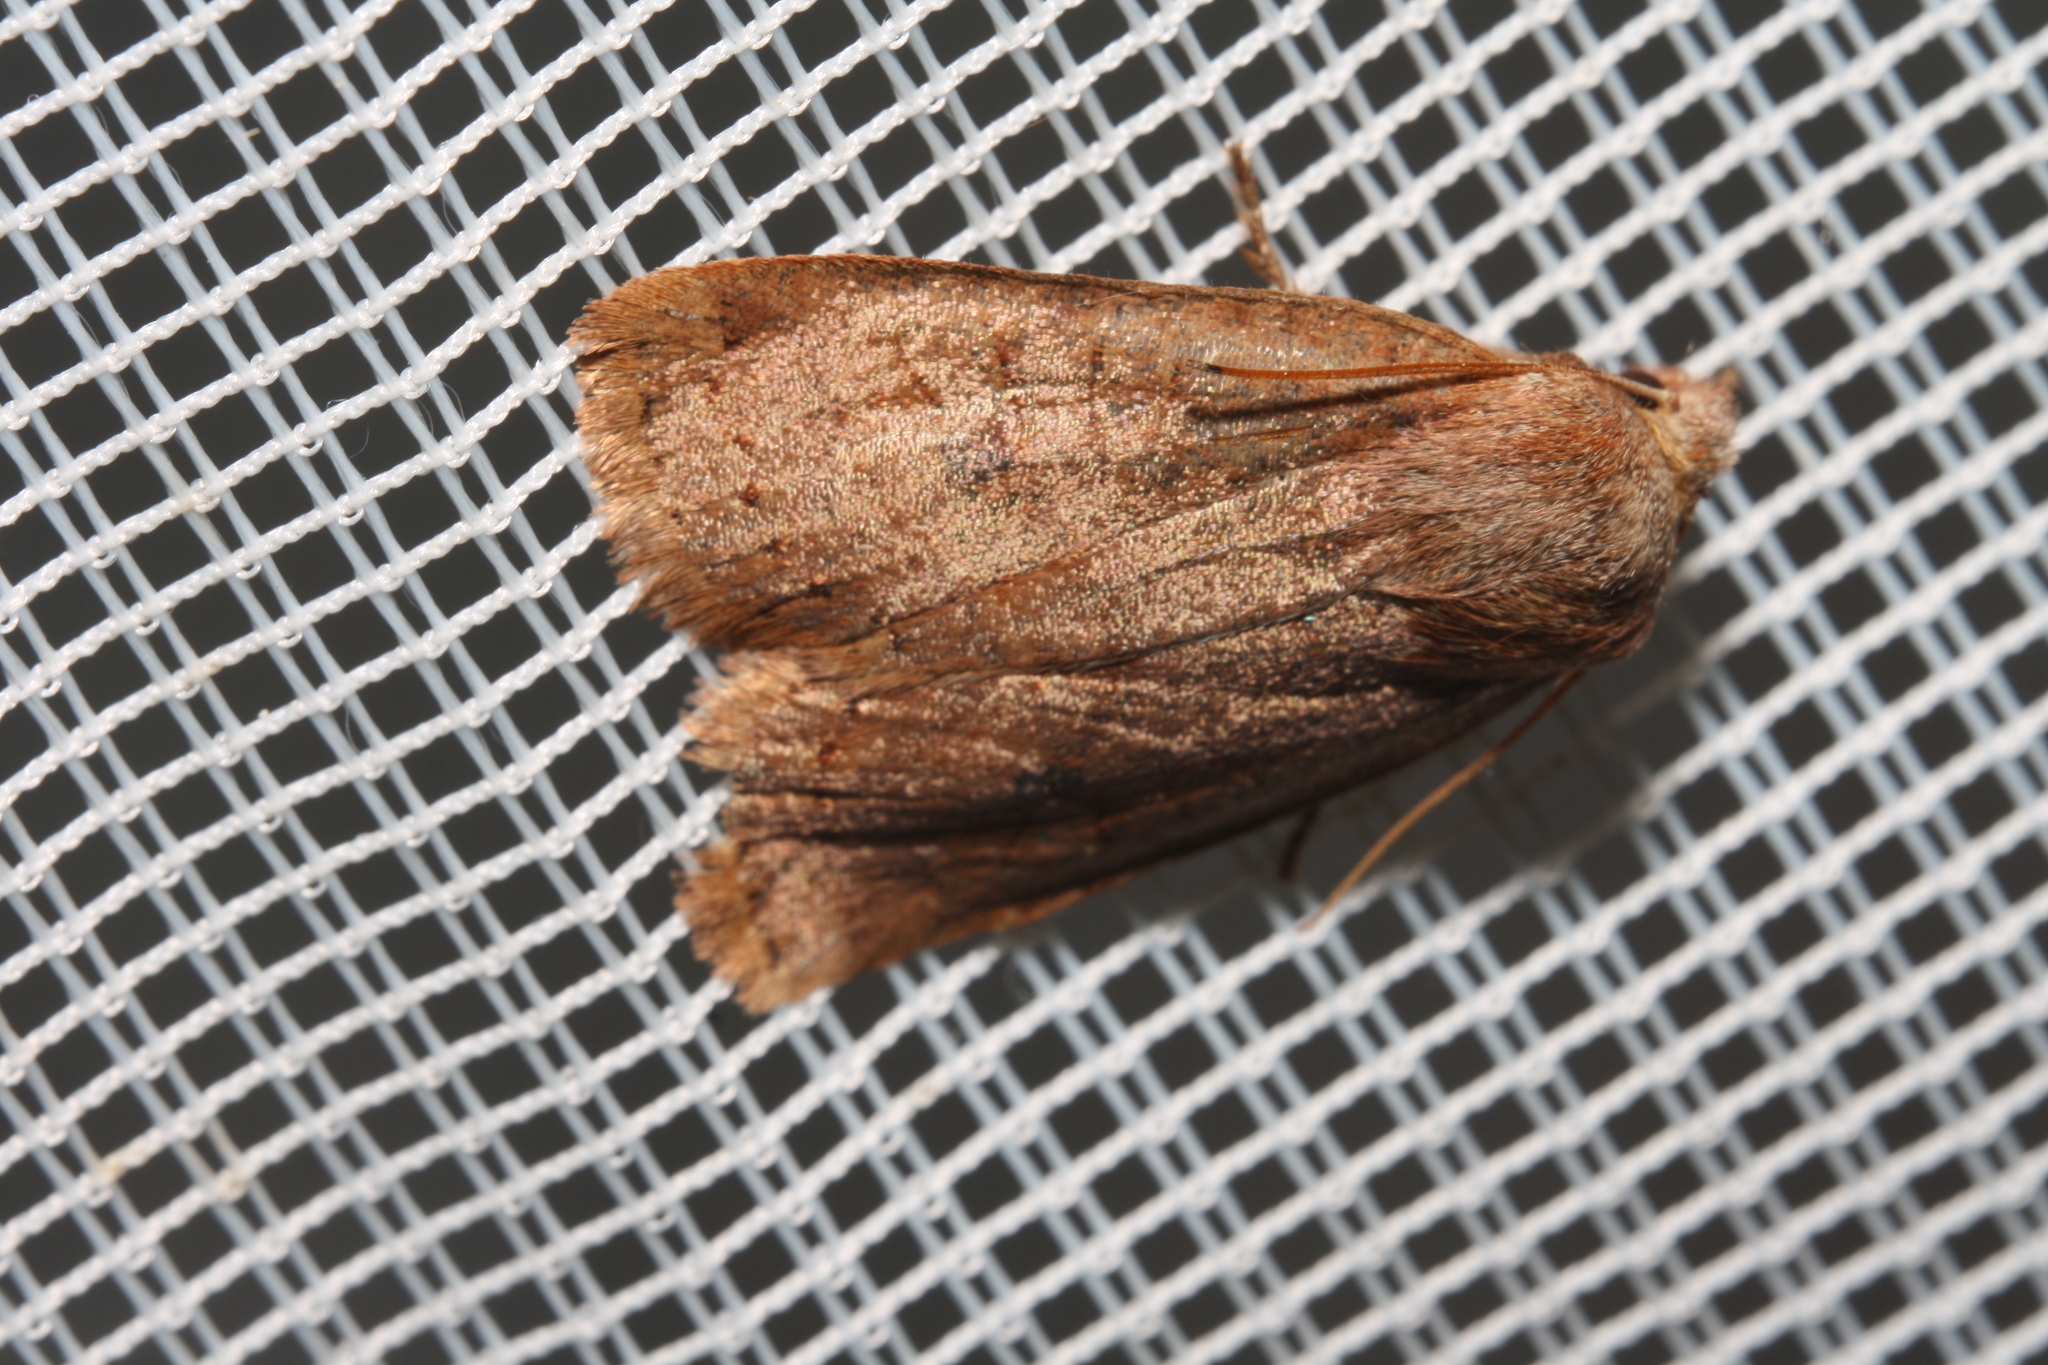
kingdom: Animalia
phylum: Arthropoda
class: Insecta
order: Lepidoptera
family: Noctuidae
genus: Conistra
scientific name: Conistra vaccinii
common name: Chestnut
